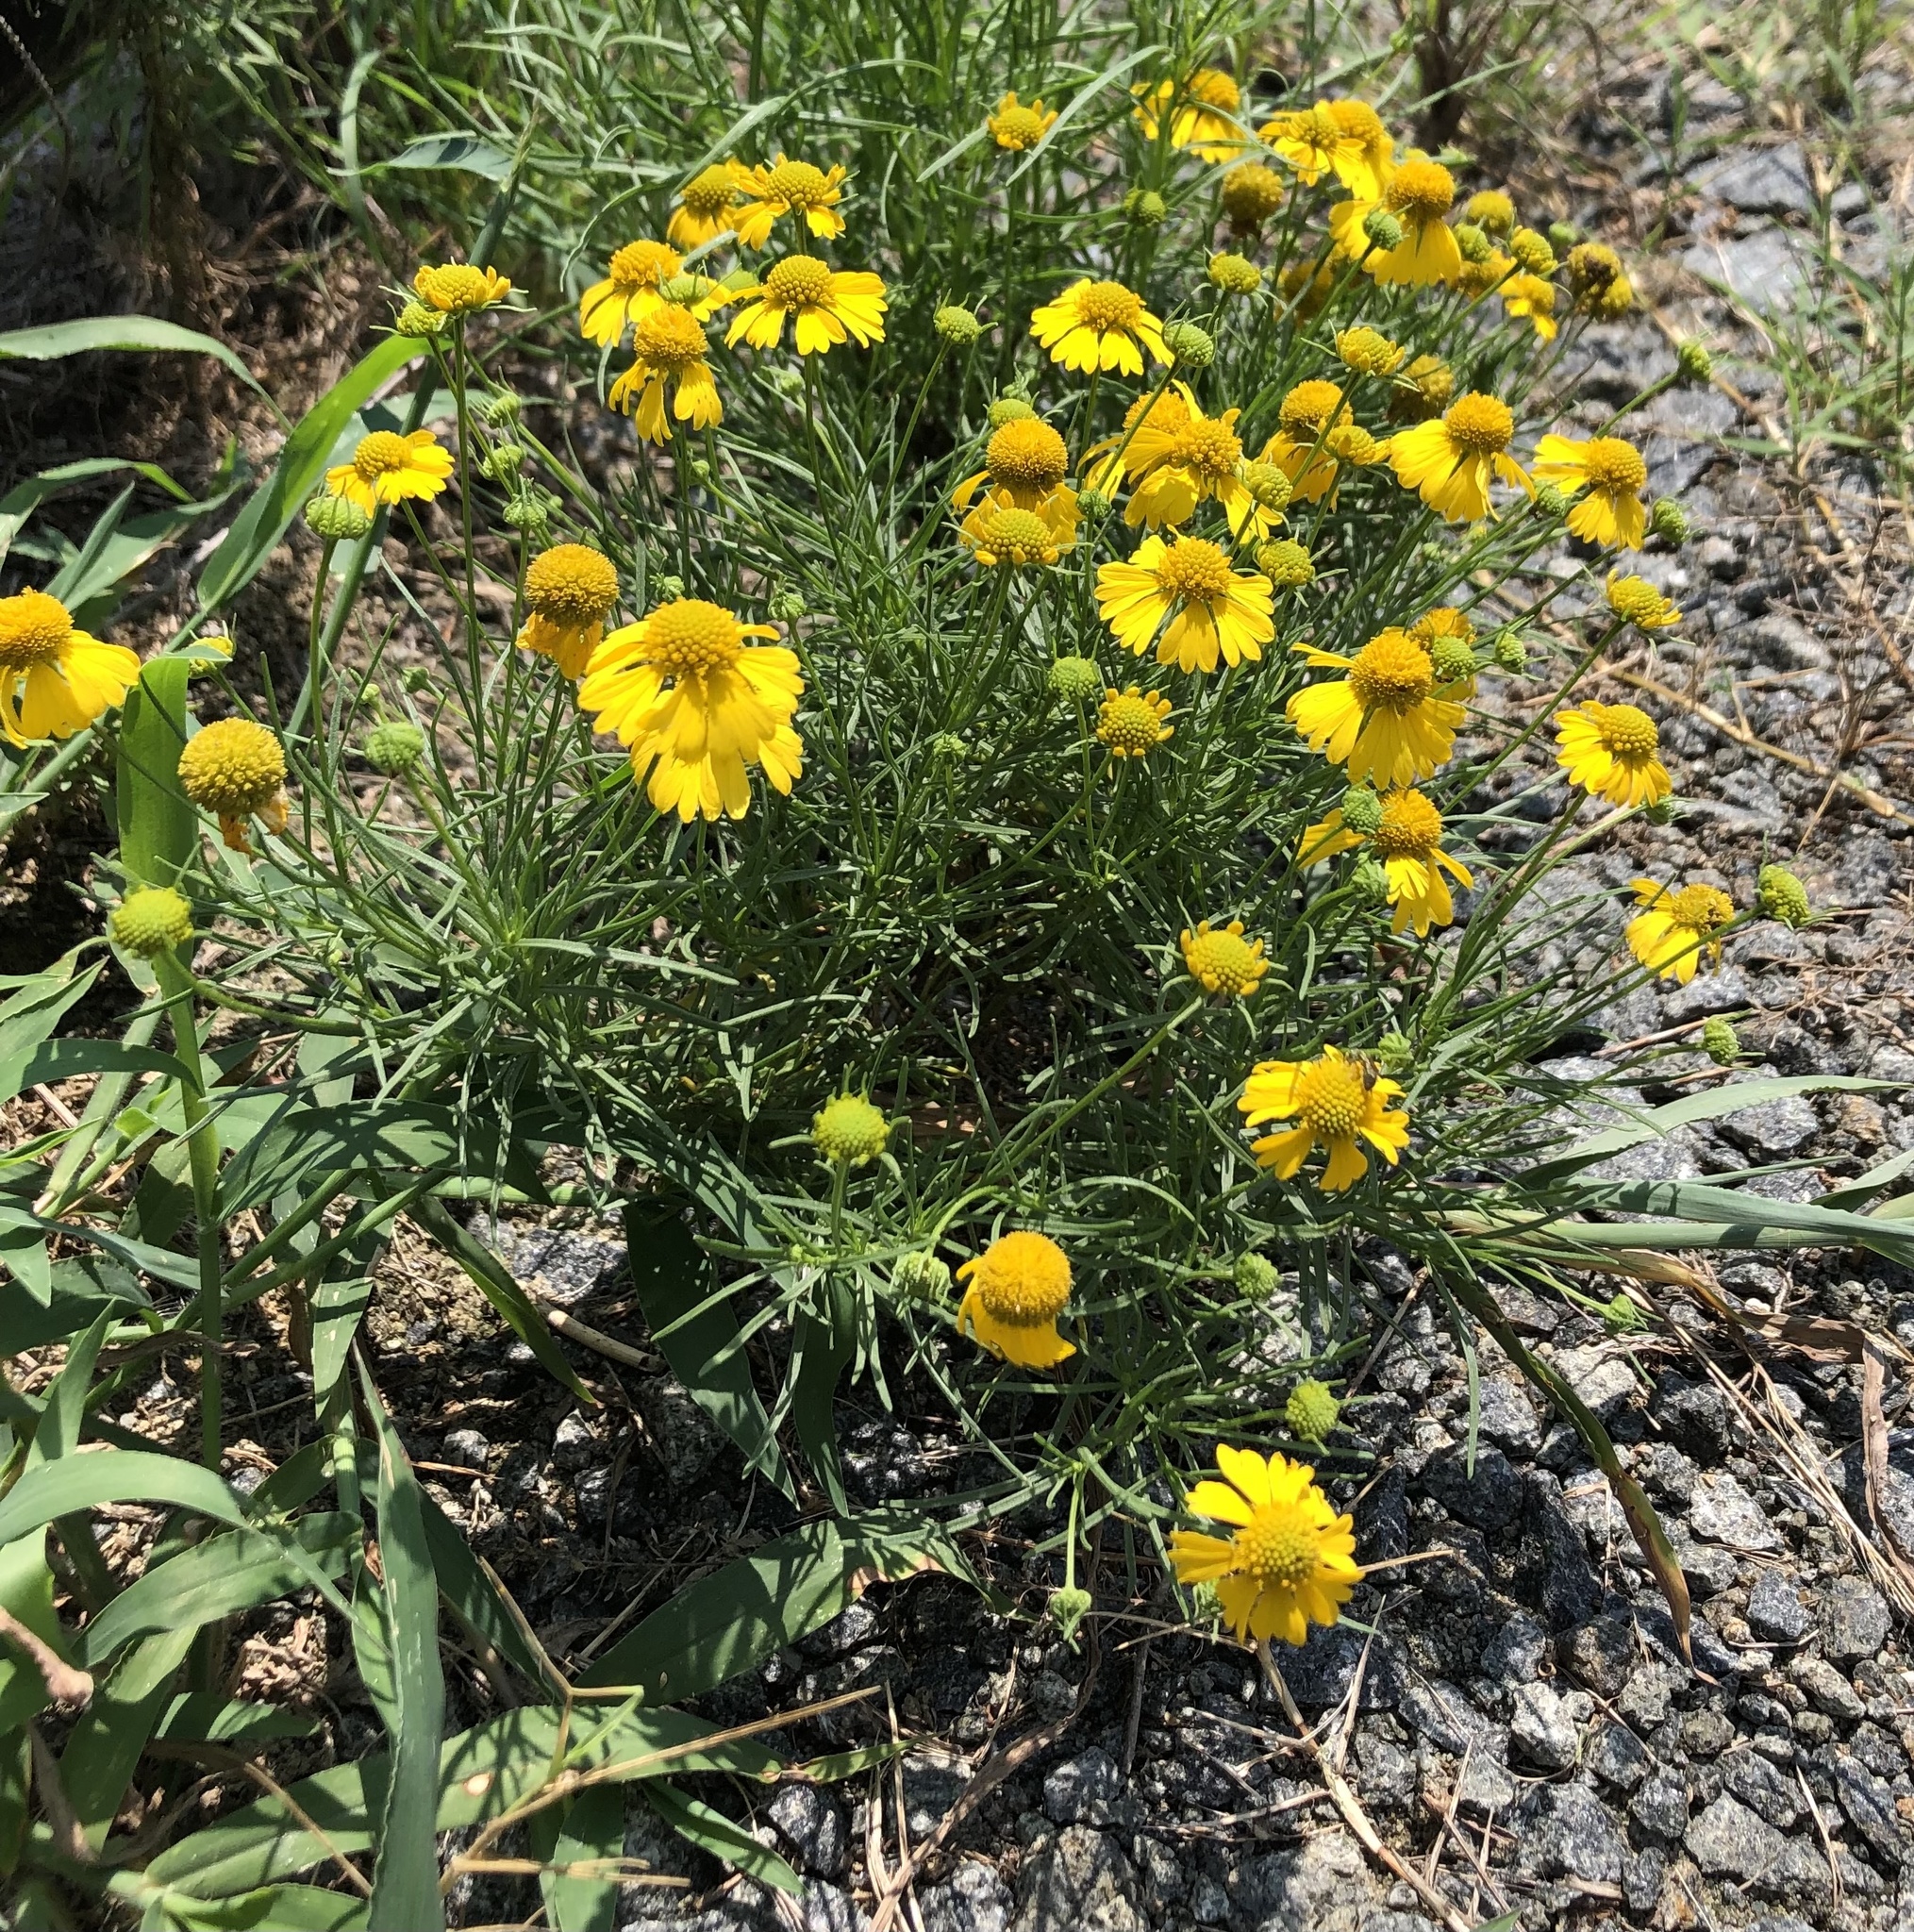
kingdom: Plantae
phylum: Tracheophyta
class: Magnoliopsida
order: Asterales
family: Asteraceae
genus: Helenium
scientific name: Helenium amarum
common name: Bitter sneezeweed
